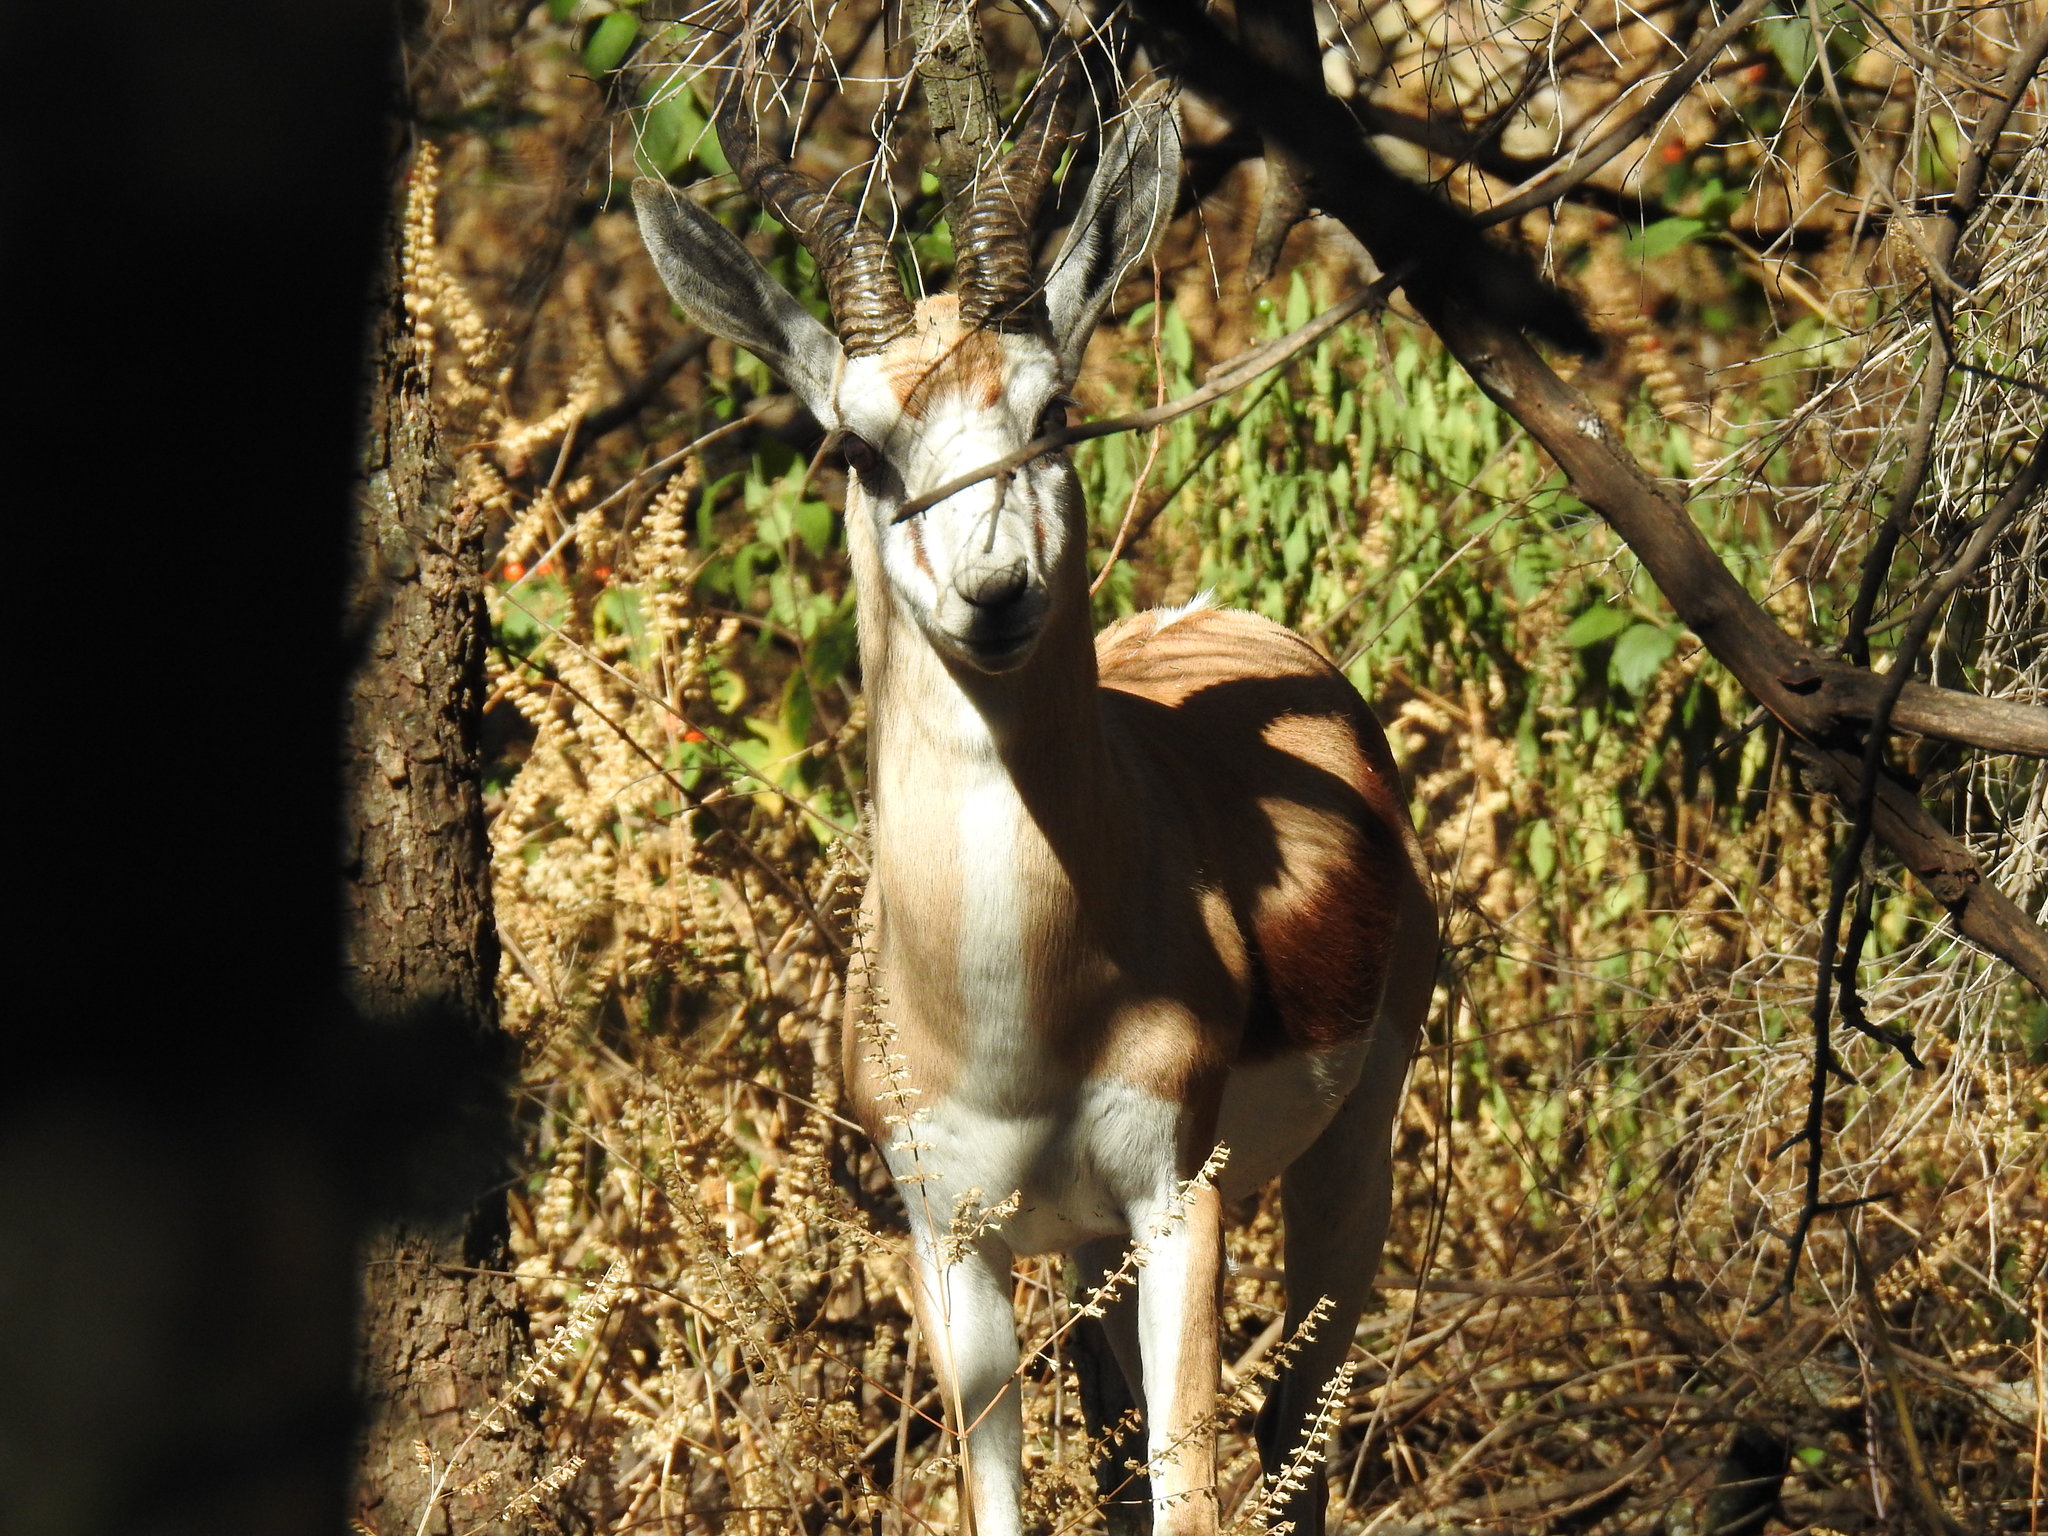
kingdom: Animalia
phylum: Chordata
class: Mammalia
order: Artiodactyla
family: Bovidae
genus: Antidorcas
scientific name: Antidorcas marsupialis
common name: Springbok
